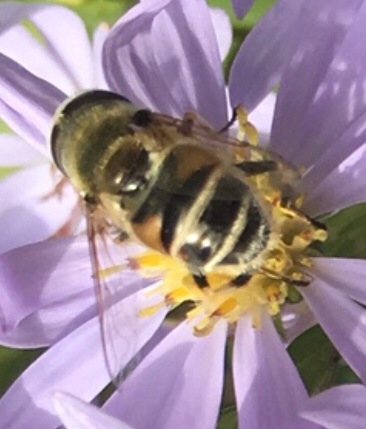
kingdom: Animalia
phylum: Arthropoda
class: Insecta
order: Diptera
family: Syrphidae
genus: Eristalis
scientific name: Eristalis arbustorum
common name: Hover fly
